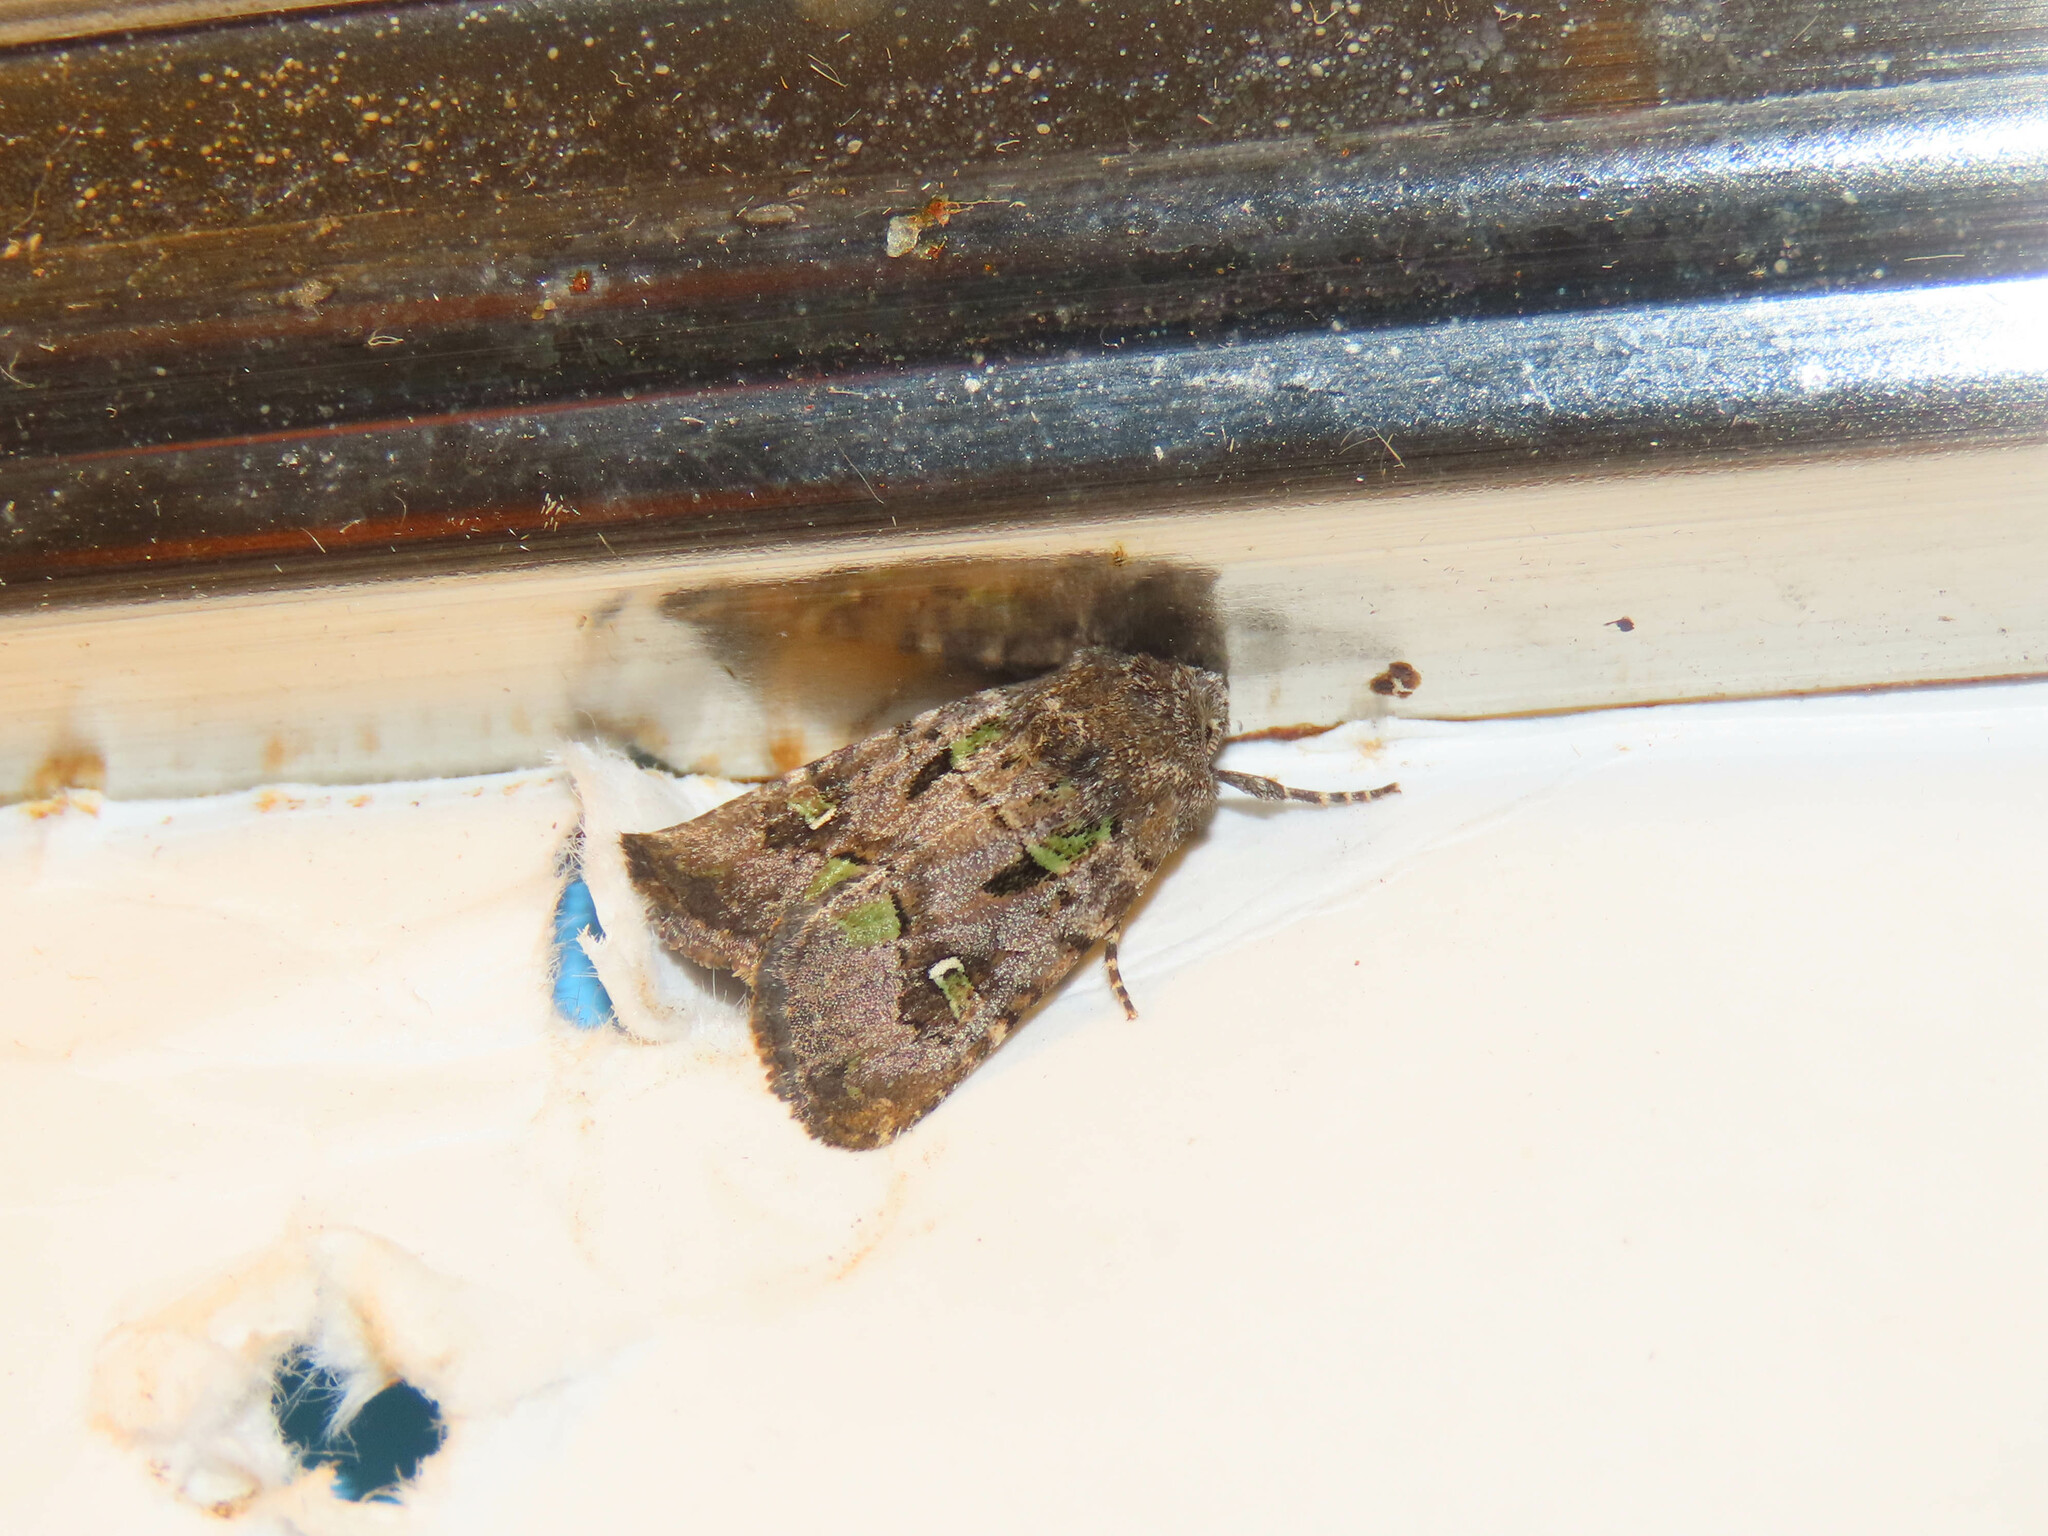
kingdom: Animalia
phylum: Arthropoda
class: Insecta
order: Lepidoptera
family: Noctuidae
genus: Lacinipolia
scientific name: Lacinipolia renigera
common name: Kidney-spotted minor
